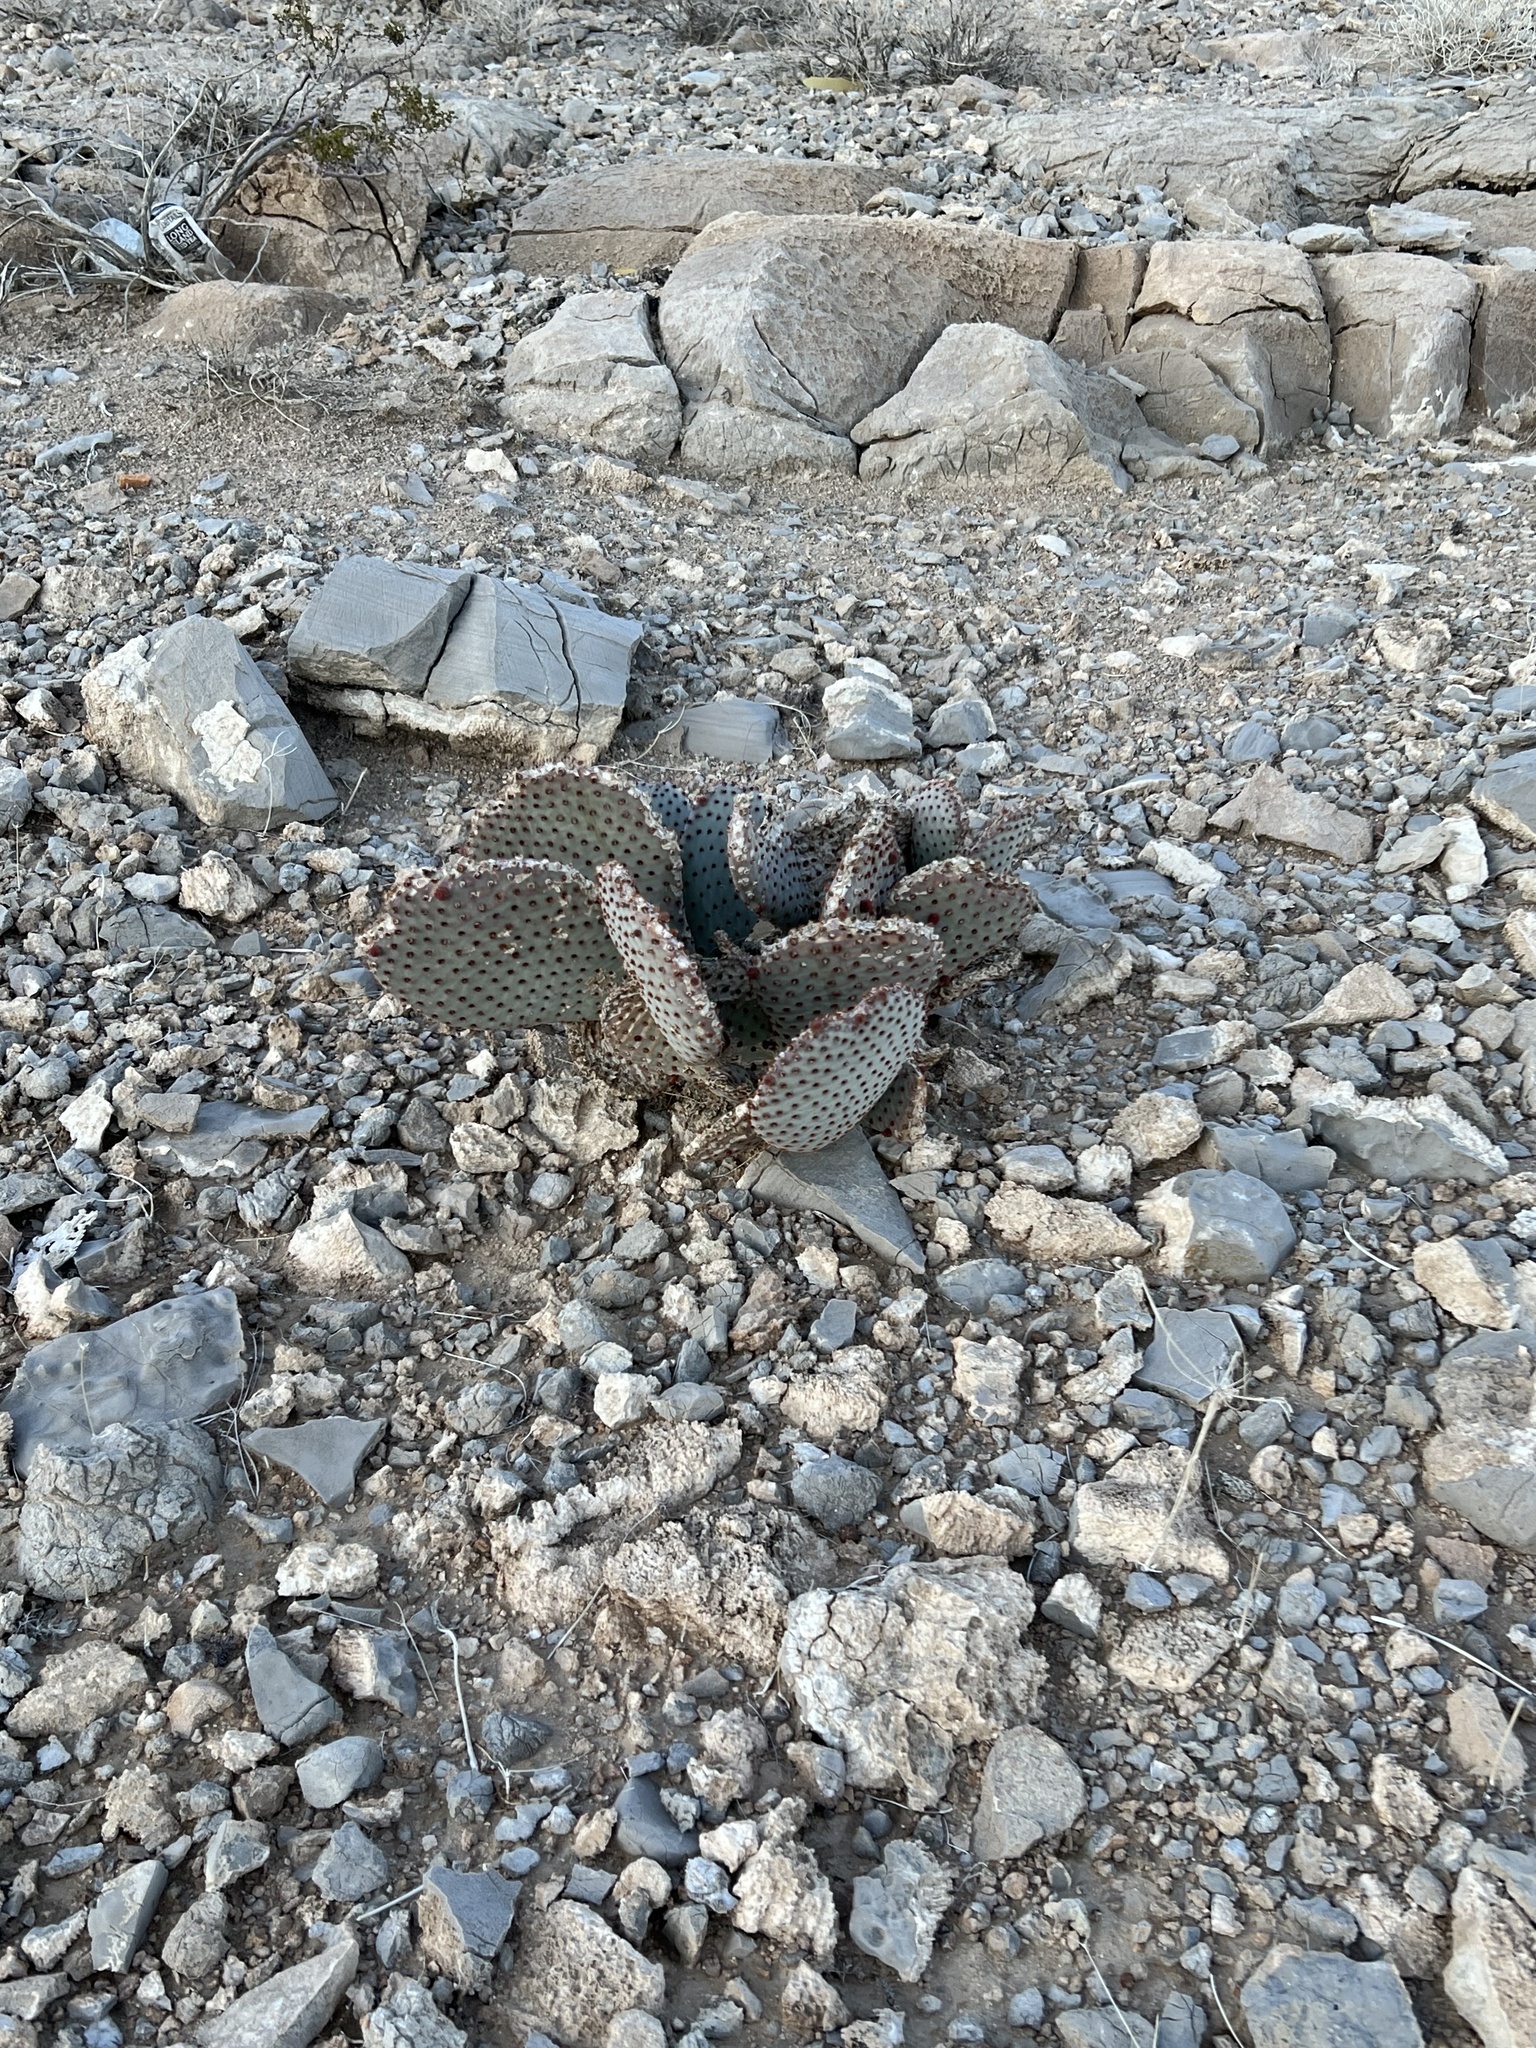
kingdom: Plantae
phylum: Tracheophyta
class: Magnoliopsida
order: Caryophyllales
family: Cactaceae
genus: Opuntia
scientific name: Opuntia basilaris
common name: Beavertail prickly-pear
